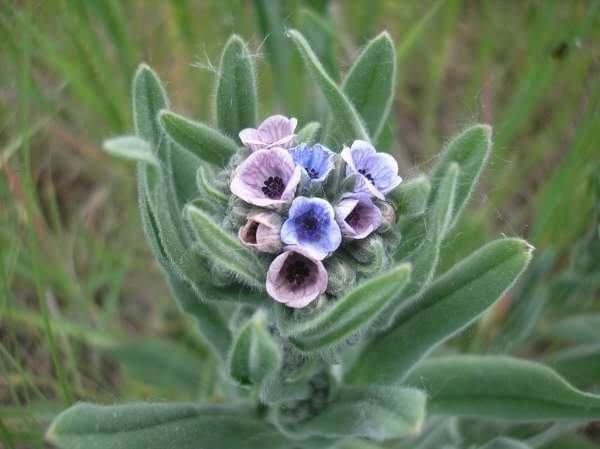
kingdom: Plantae
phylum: Tracheophyta
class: Magnoliopsida
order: Boraginales
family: Boraginaceae
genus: Cynoglossum
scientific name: Cynoglossum creticum
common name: Blue hound's tongue
